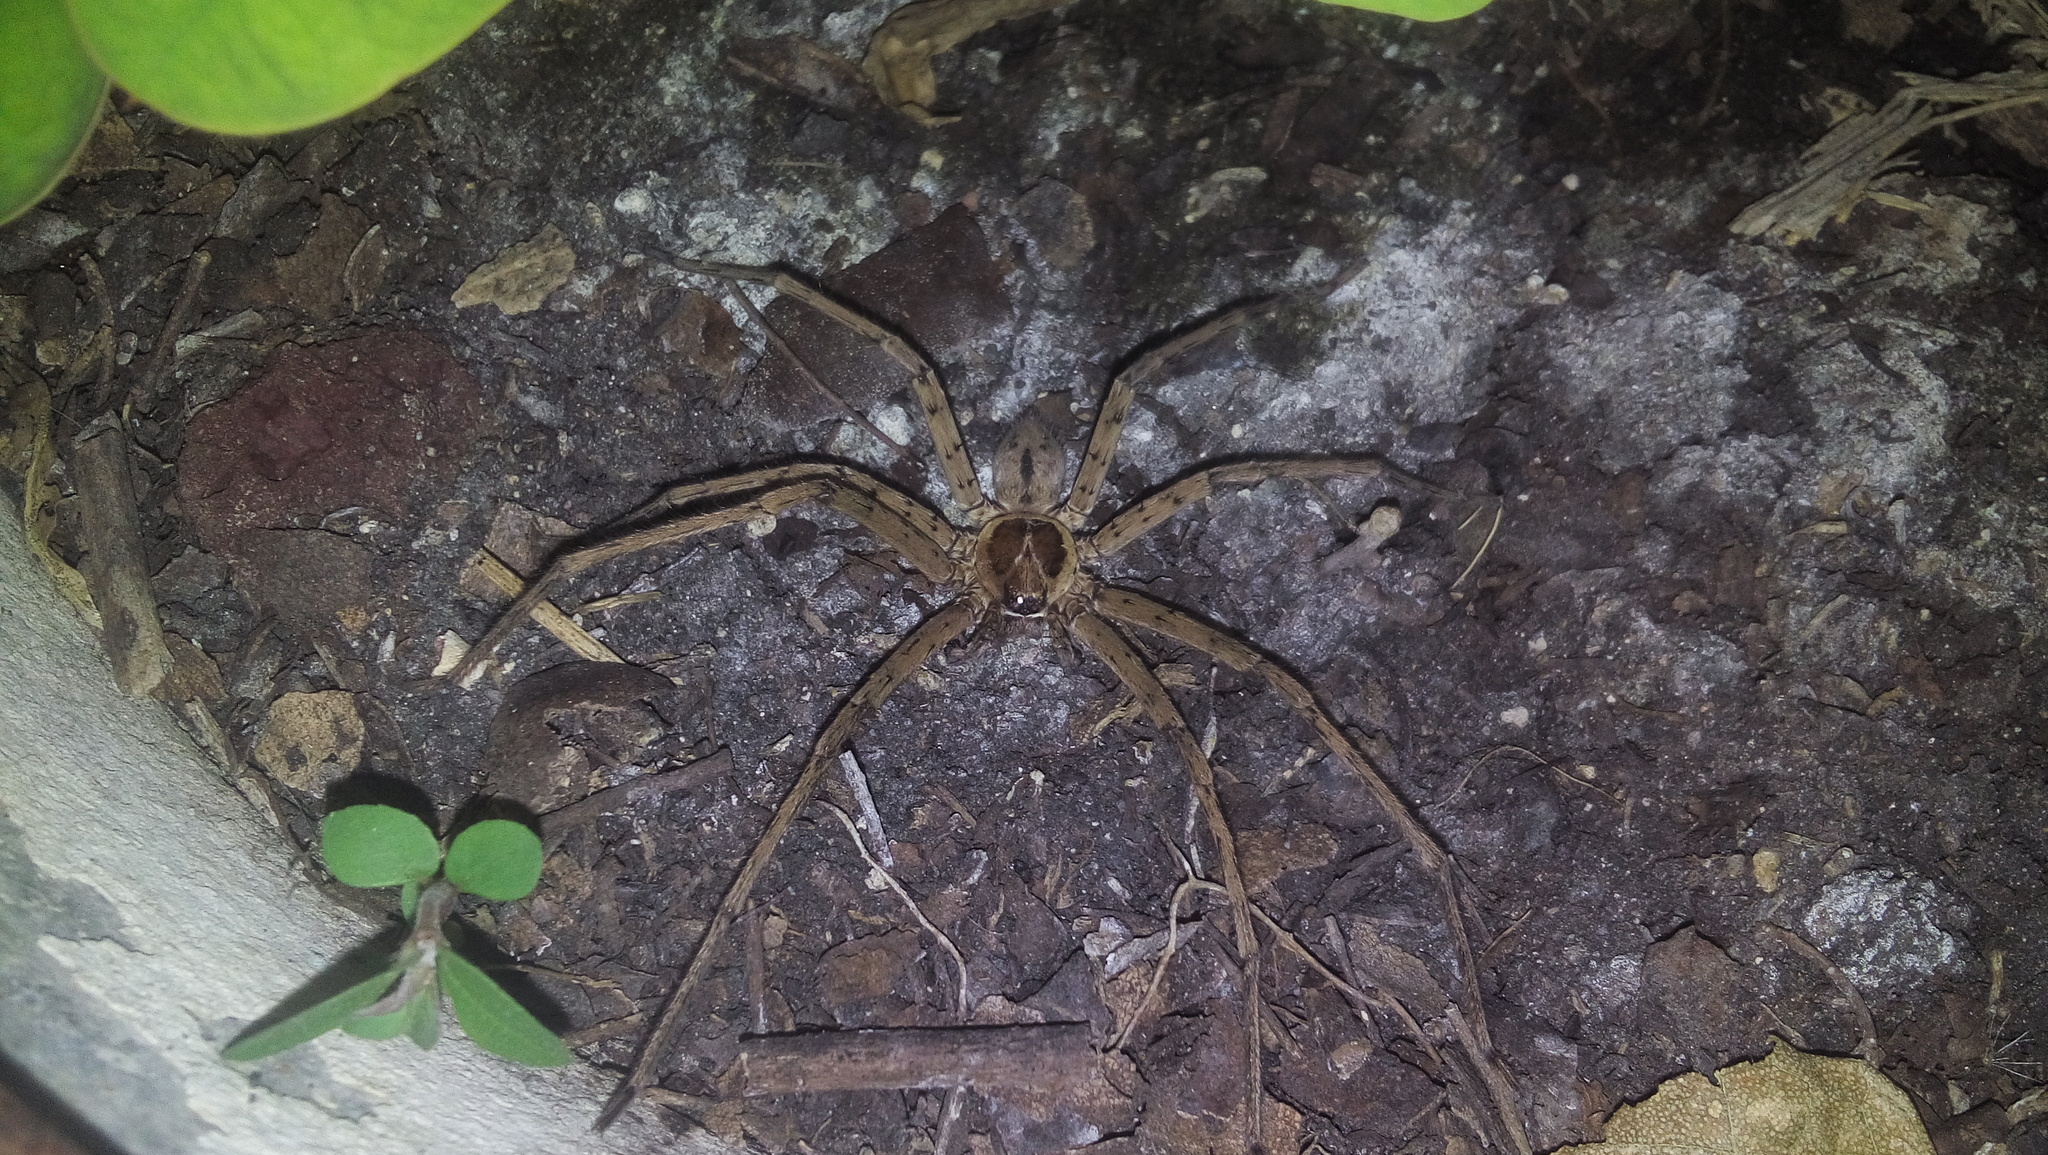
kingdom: Animalia
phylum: Arthropoda
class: Arachnida
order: Araneae
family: Sparassidae
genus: Heteropoda
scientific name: Heteropoda venatoria
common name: Huntsman spider
